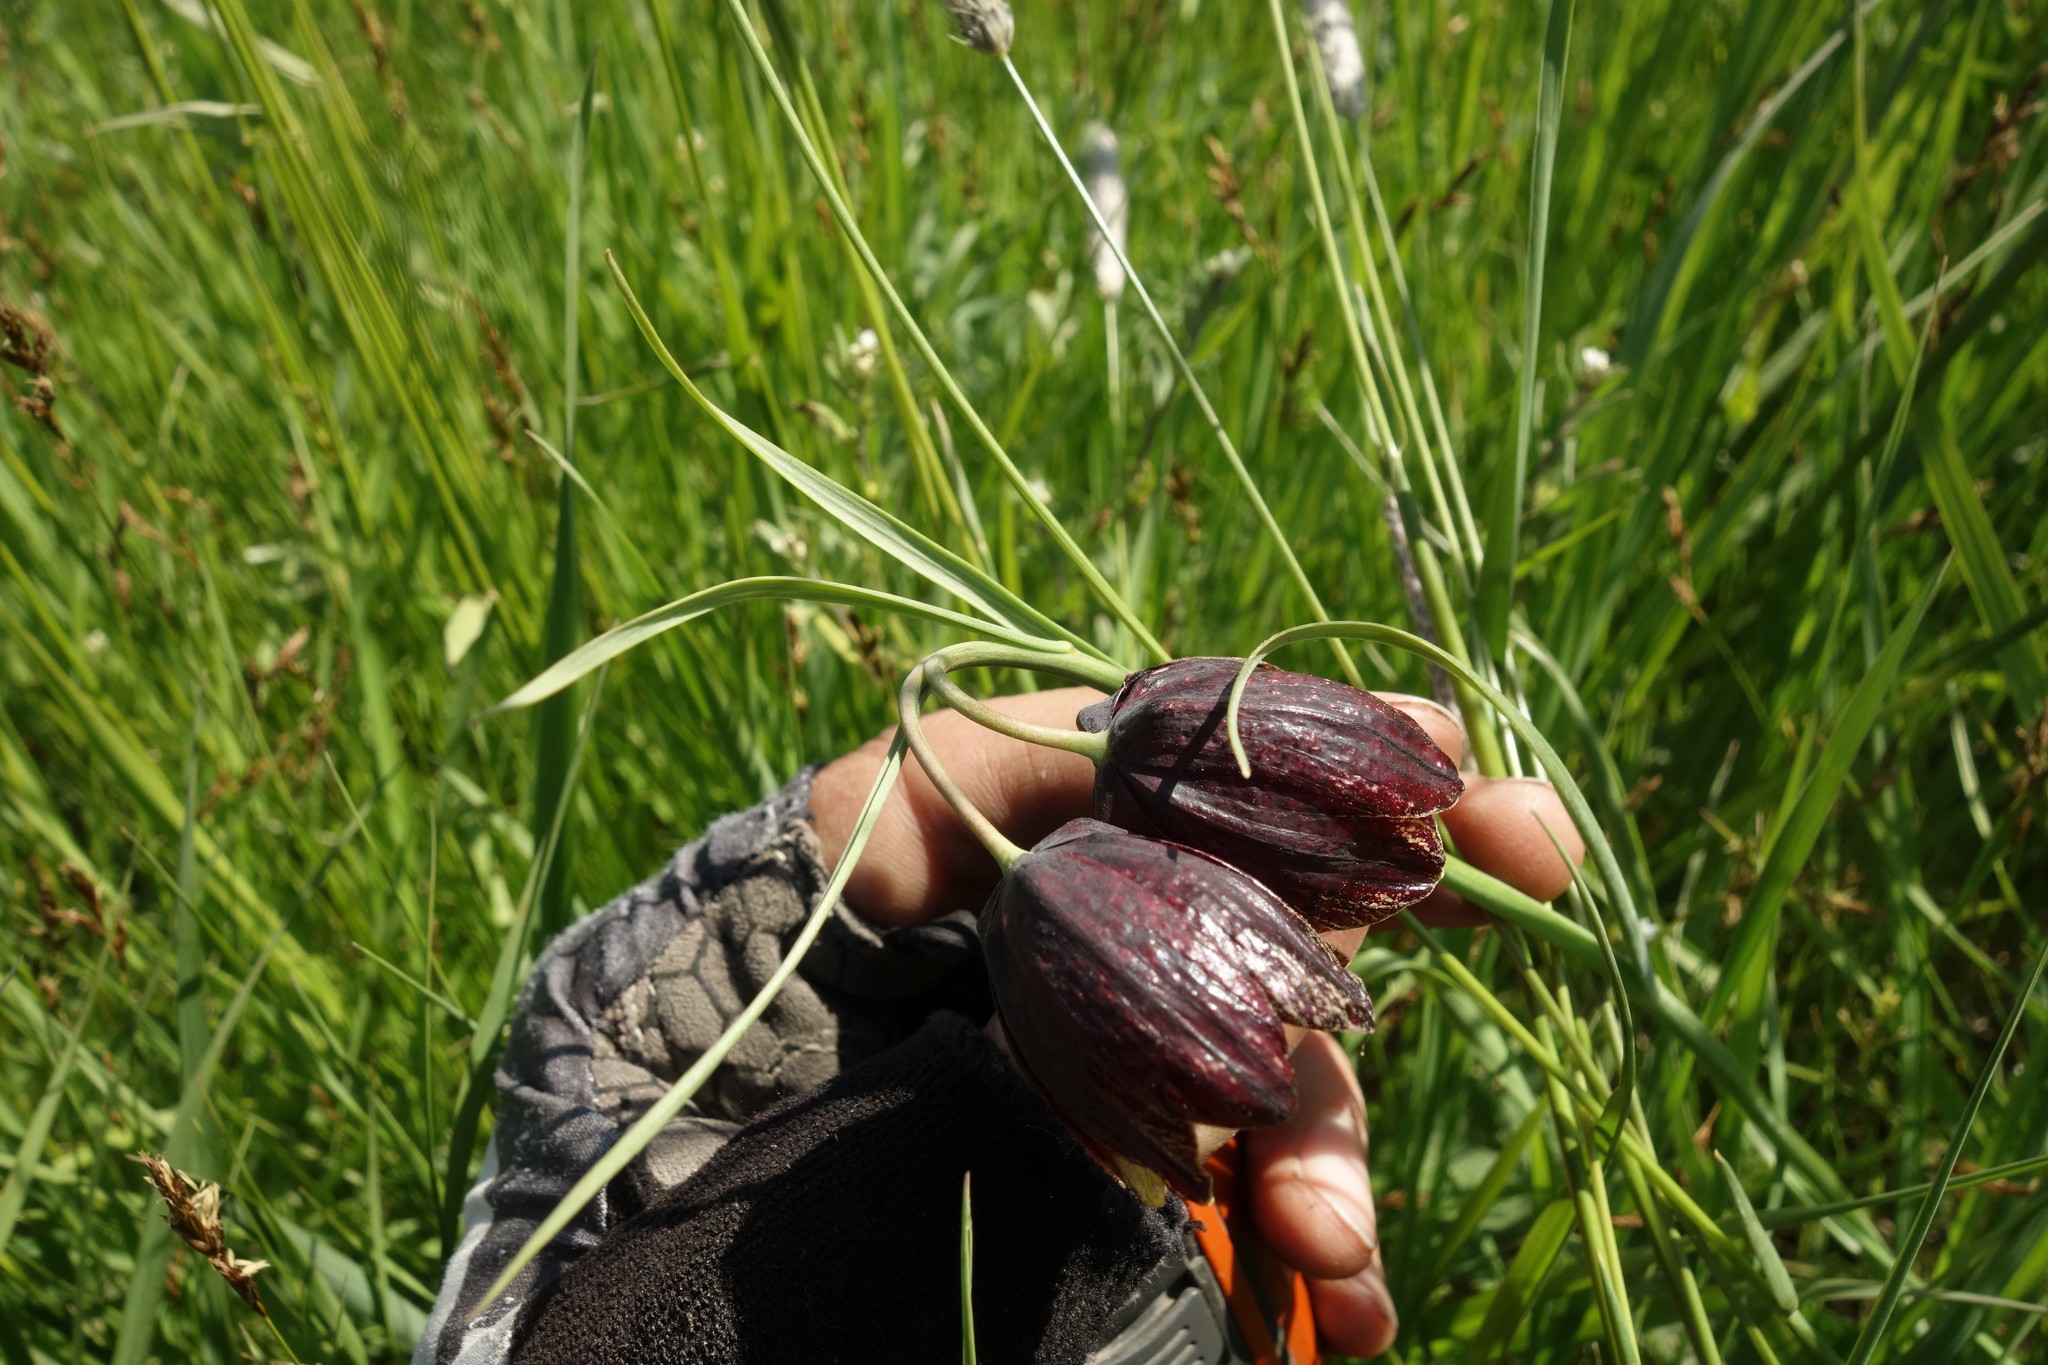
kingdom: Plantae
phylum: Tracheophyta
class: Liliopsida
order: Liliales
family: Liliaceae
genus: Fritillaria
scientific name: Fritillaria meleagroides
